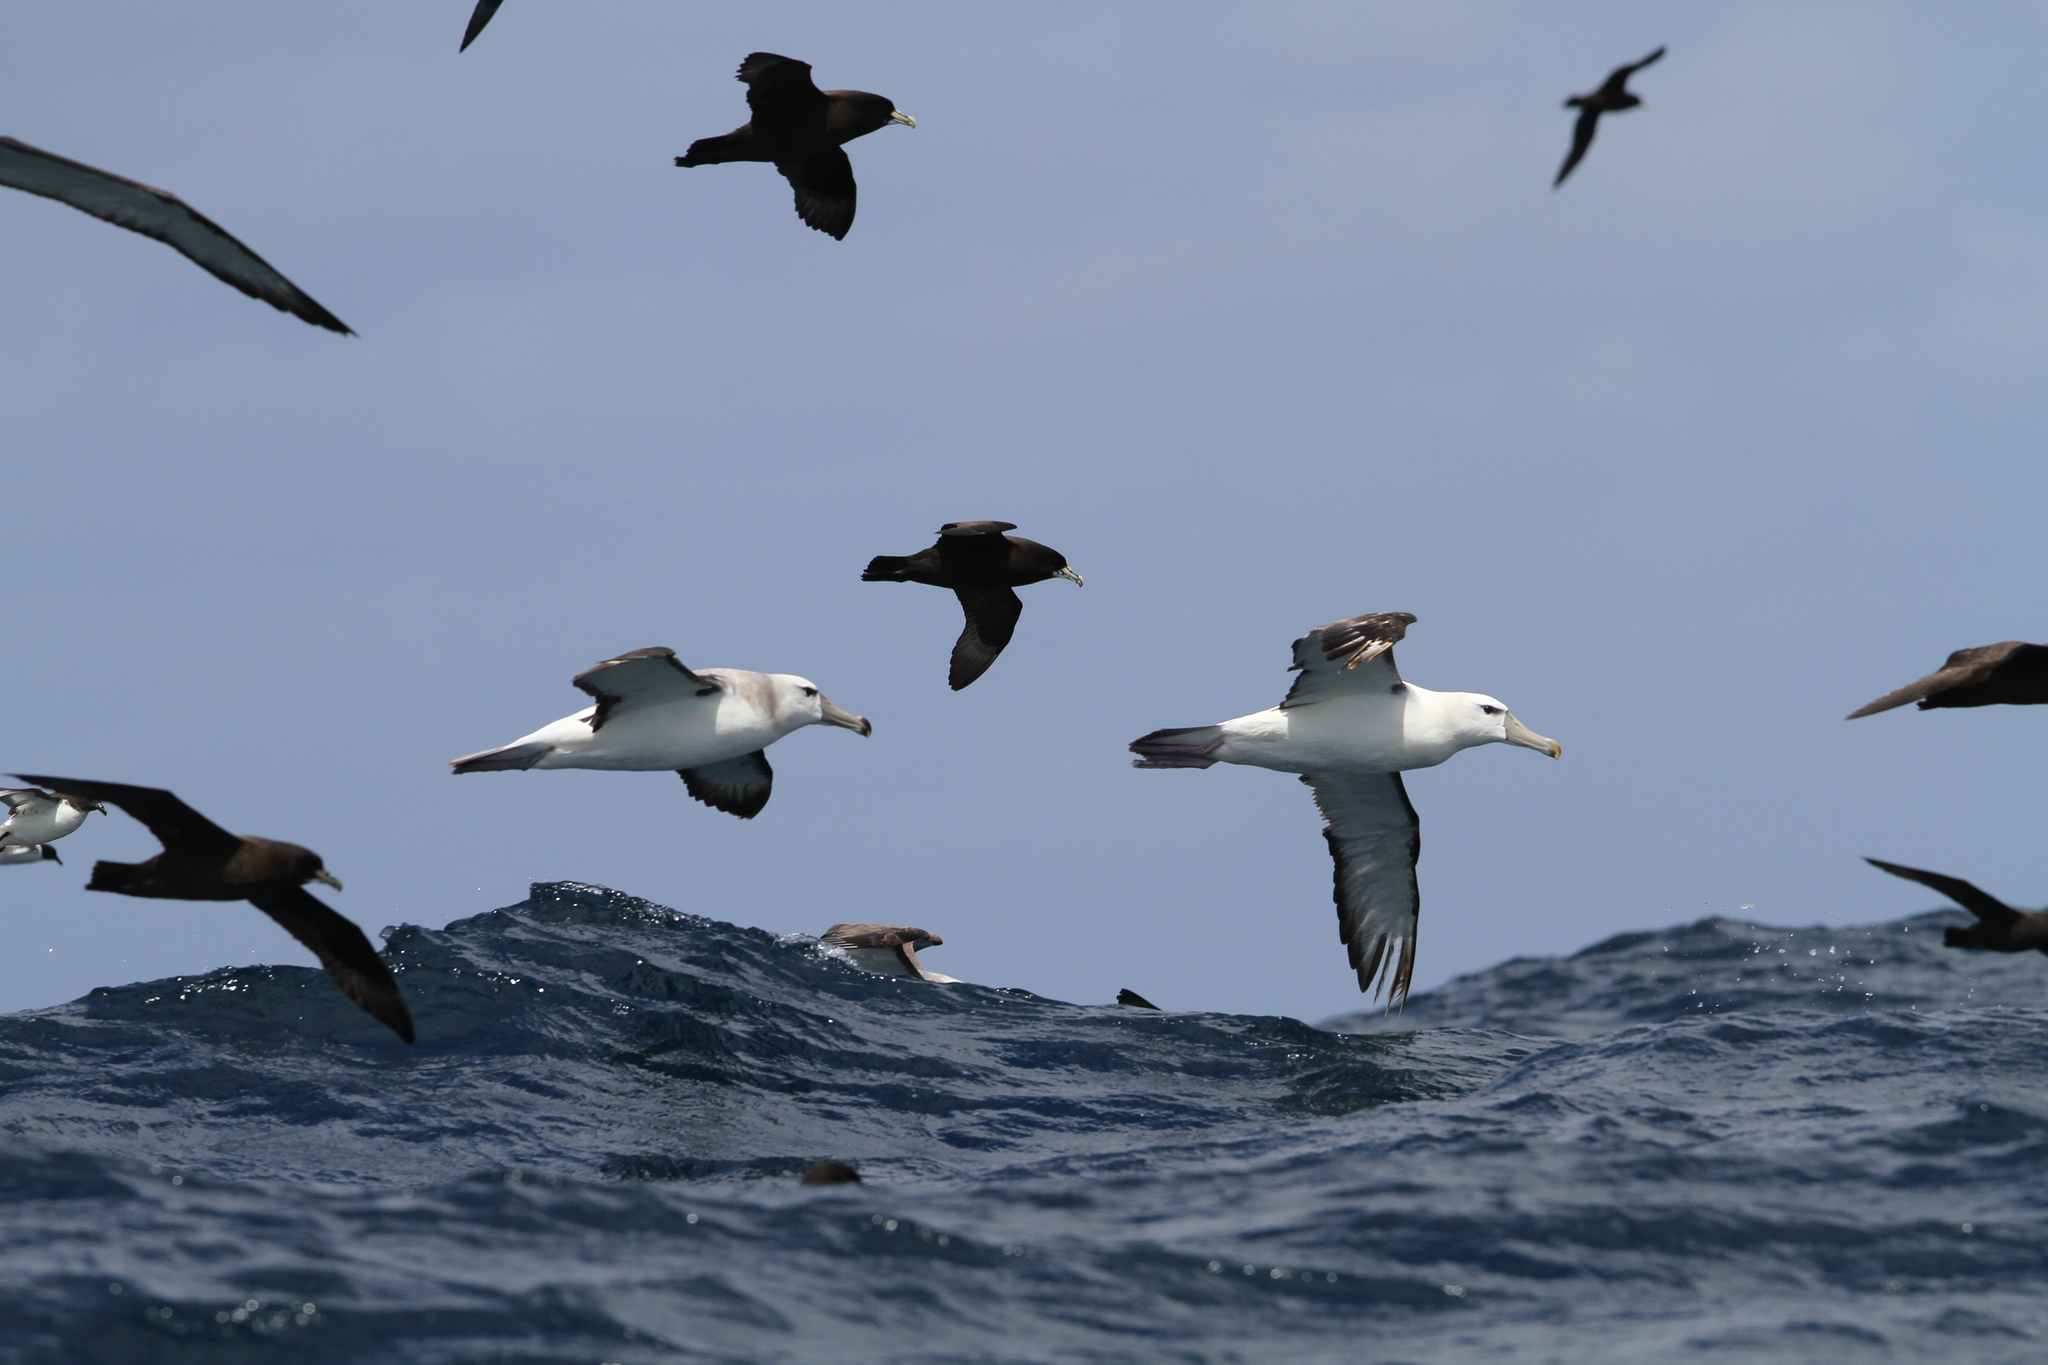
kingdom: Animalia
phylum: Chordata
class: Aves
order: Procellariiformes
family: Diomedeidae
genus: Thalassarche
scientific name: Thalassarche cauta
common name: Shy albatross
